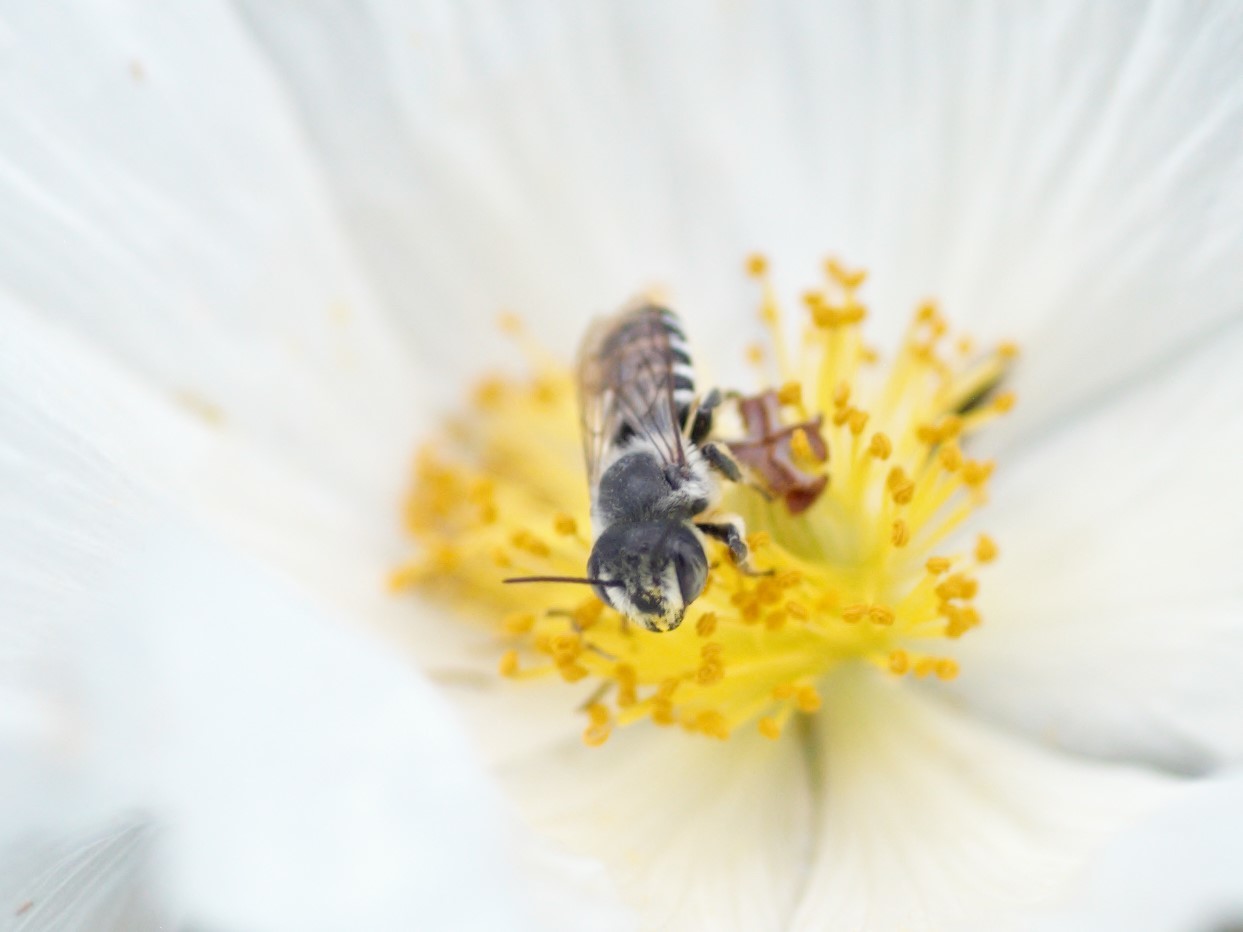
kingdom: Animalia
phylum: Arthropoda
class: Insecta
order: Hymenoptera
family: Megachilidae
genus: Megachile
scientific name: Megachile
